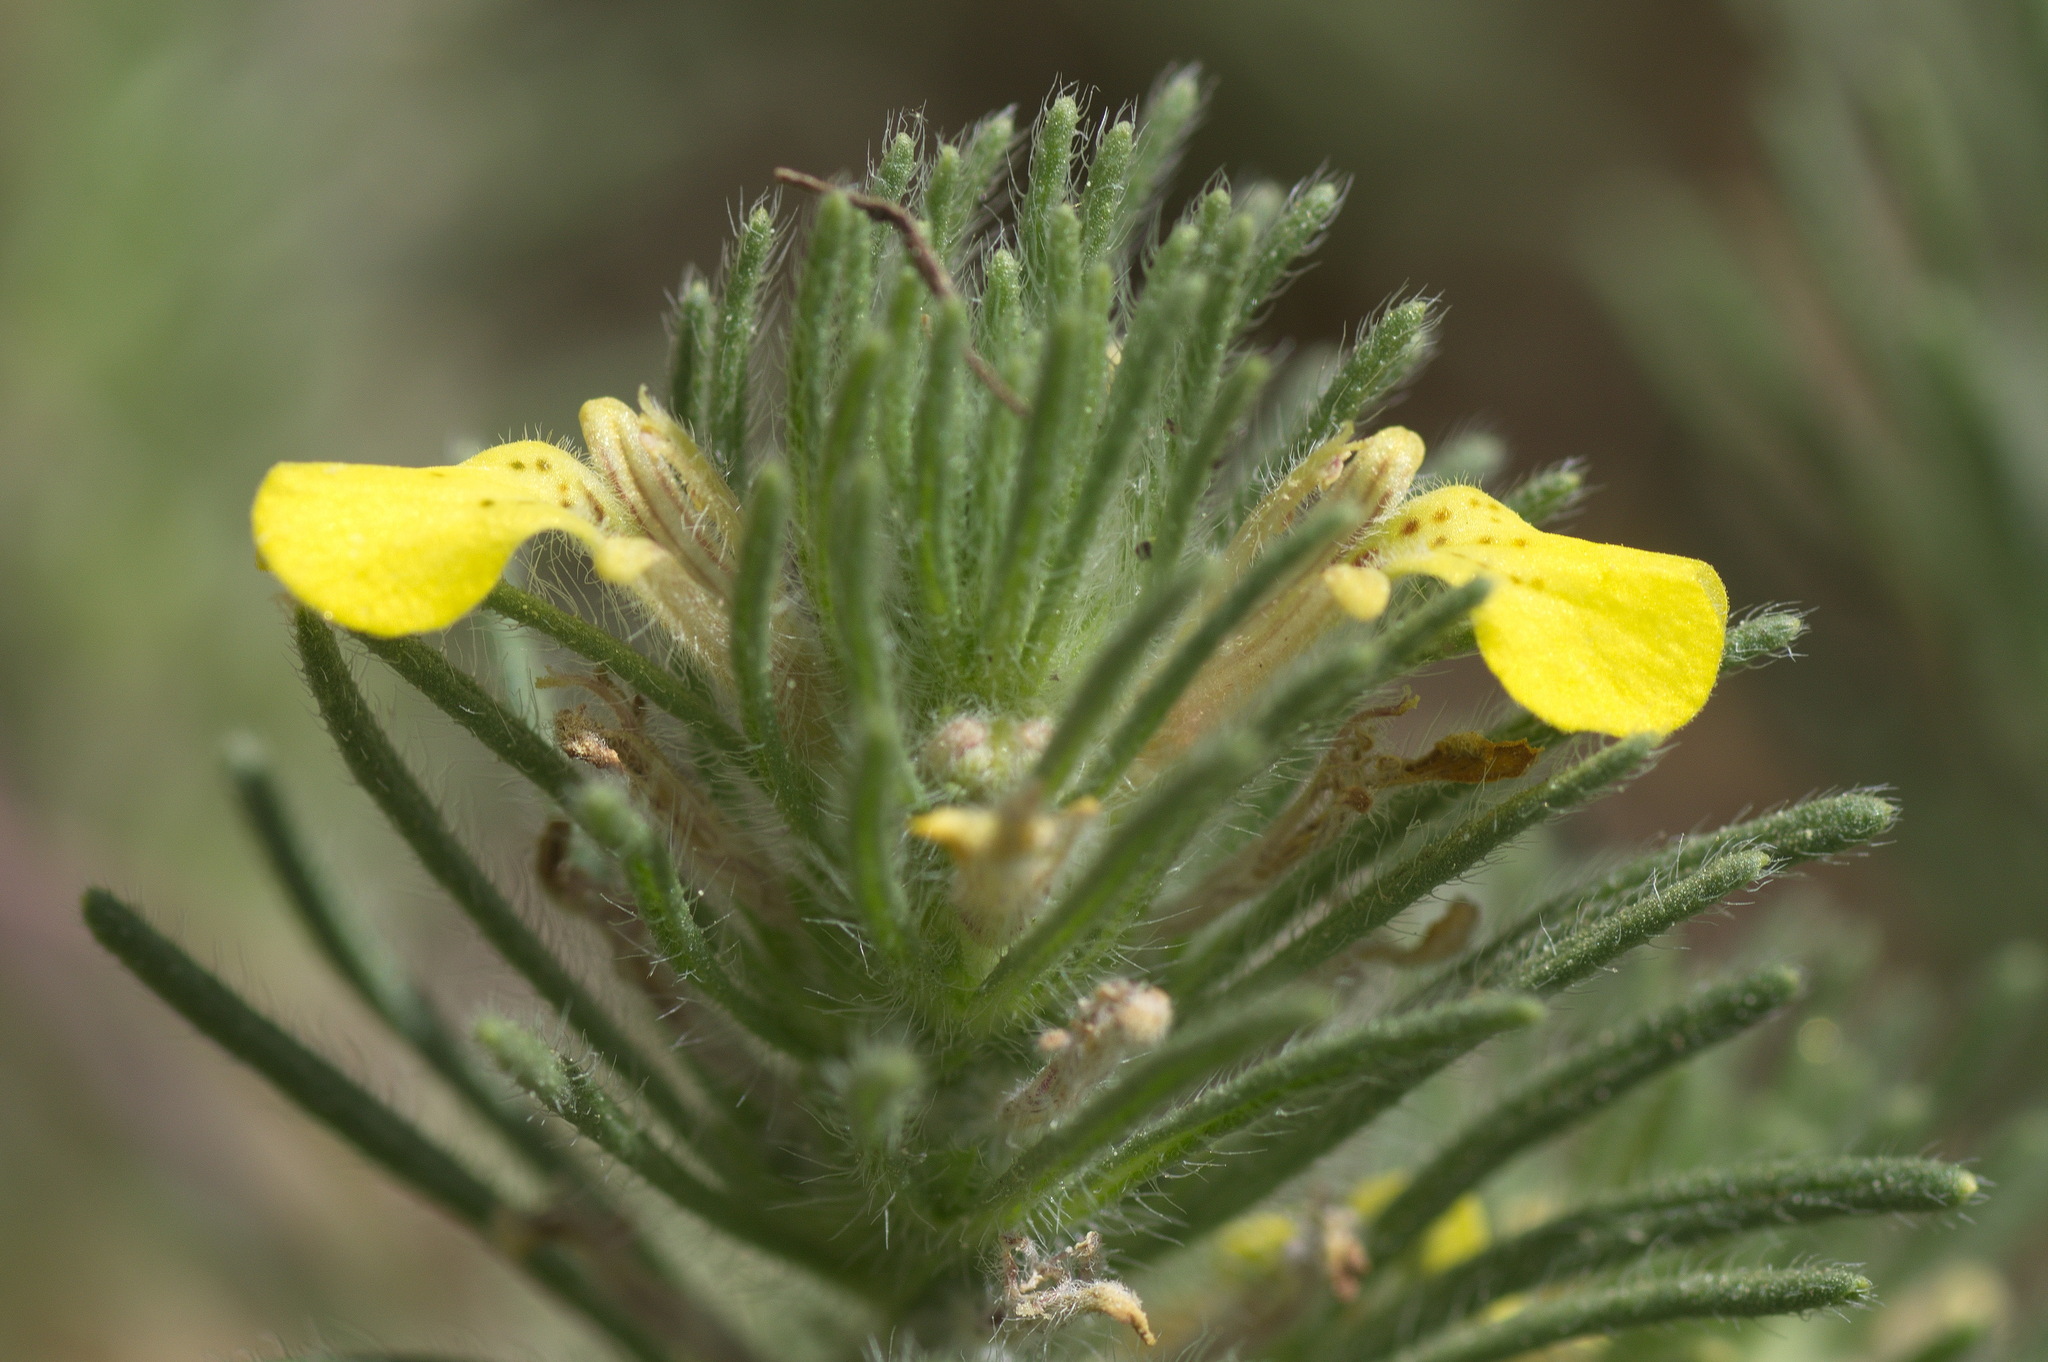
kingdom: Plantae
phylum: Tracheophyta
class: Magnoliopsida
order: Lamiales
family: Lamiaceae
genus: Ajuga
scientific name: Ajuga chamaepitys
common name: Ground-pine
